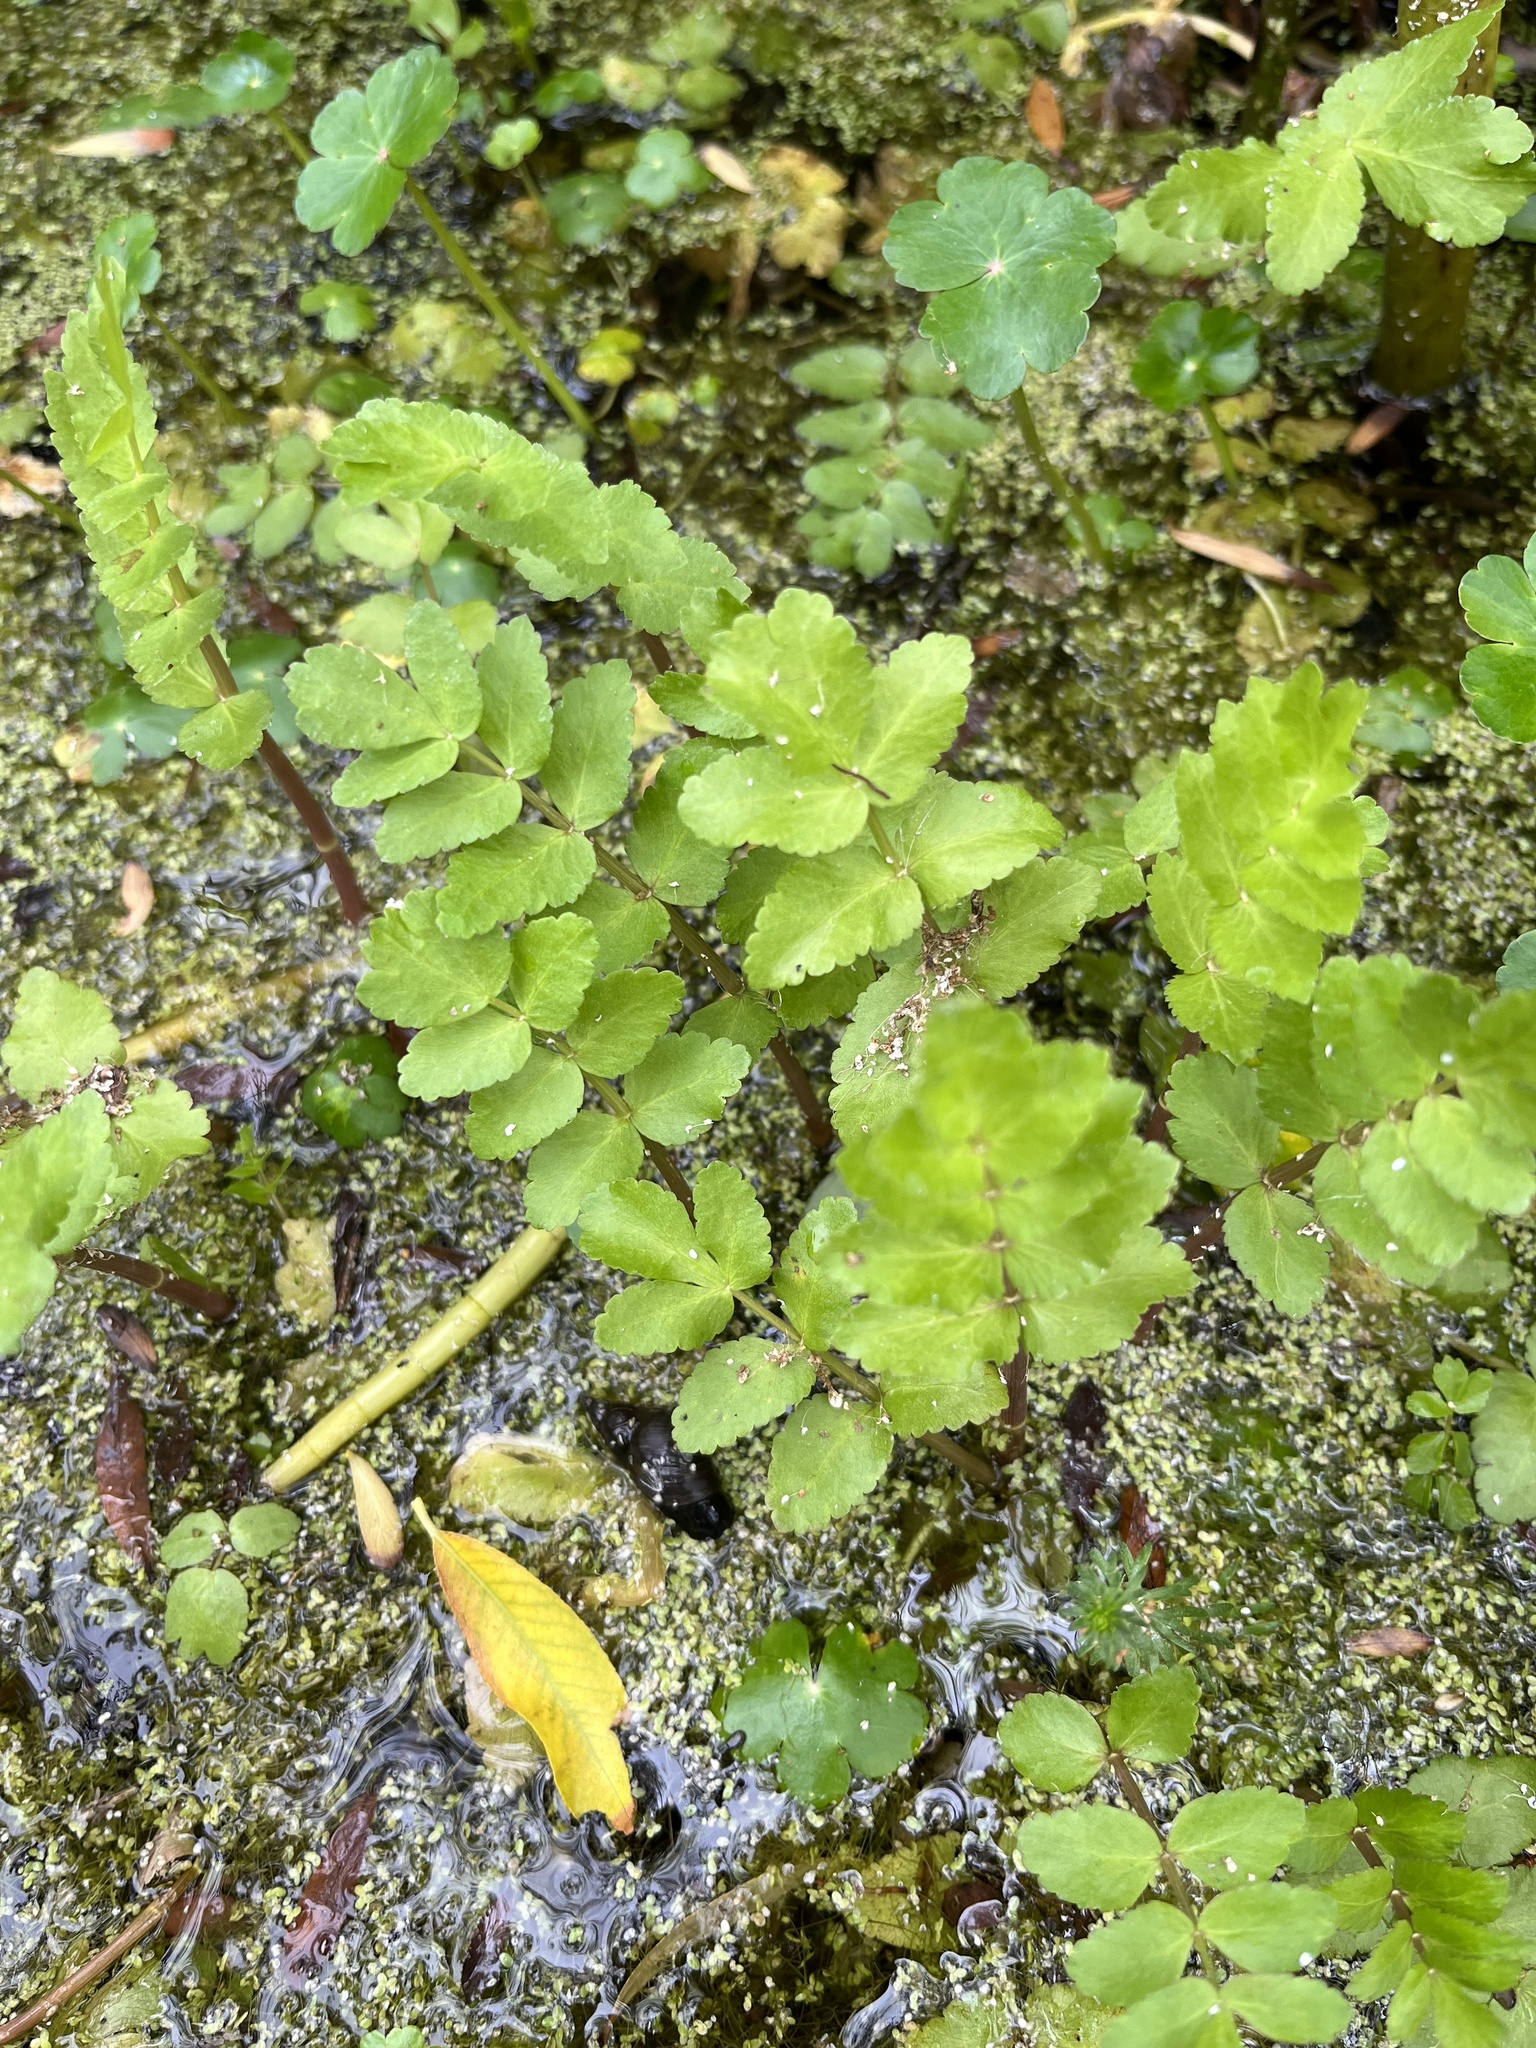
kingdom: Plantae
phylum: Tracheophyta
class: Magnoliopsida
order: Apiales
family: Apiaceae
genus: Berula
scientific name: Berula erecta
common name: Lesser water-parsnip
